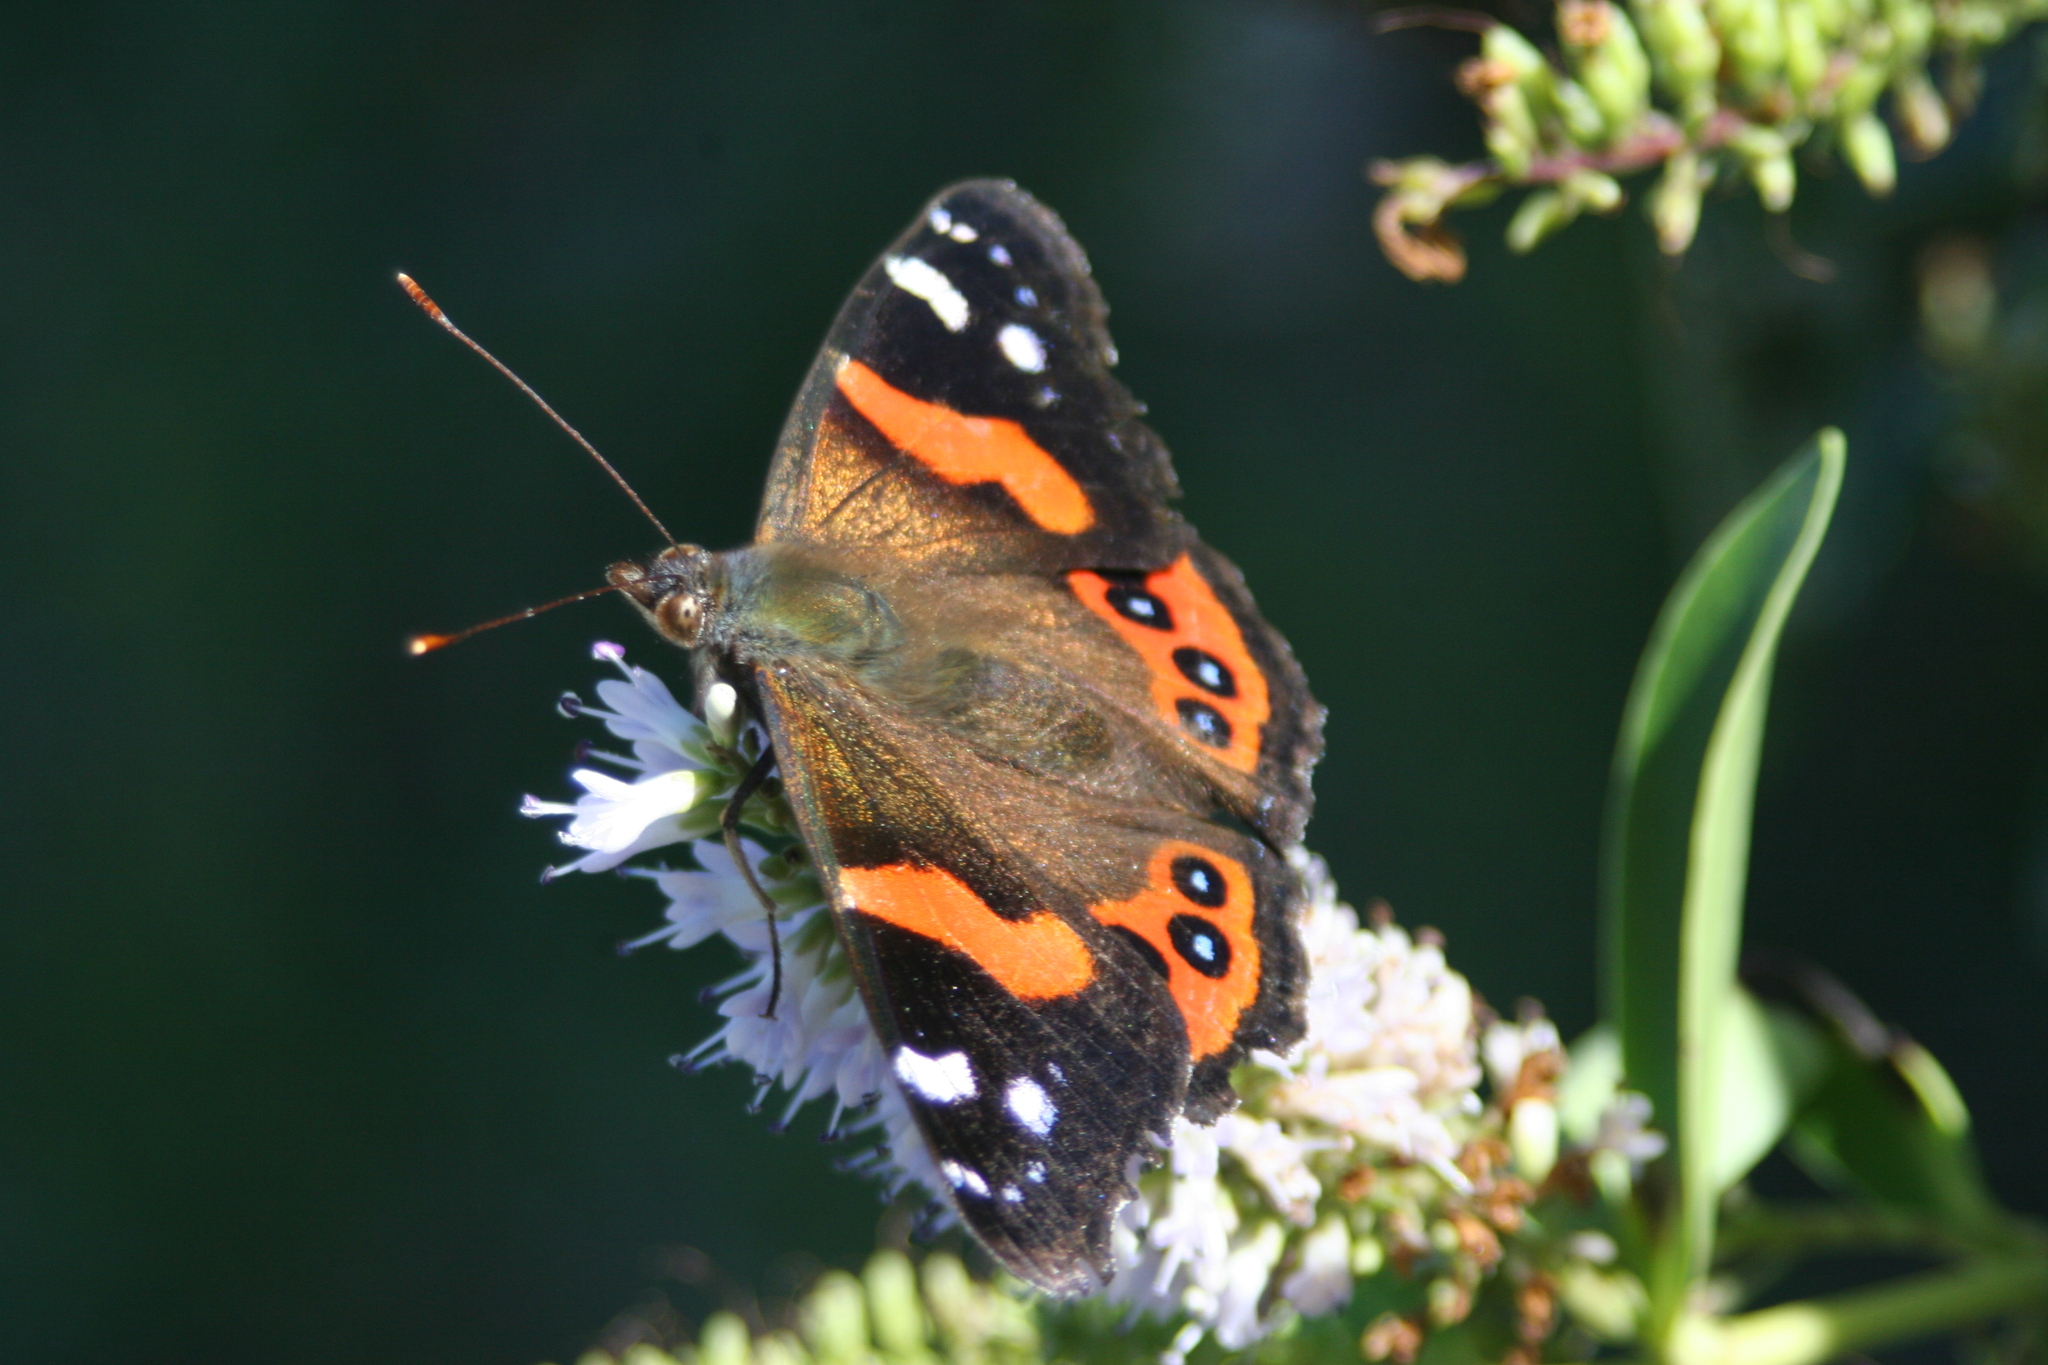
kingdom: Animalia
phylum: Arthropoda
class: Insecta
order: Lepidoptera
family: Nymphalidae
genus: Vanessa
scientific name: Vanessa gonerilla
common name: New zealand red admiral
